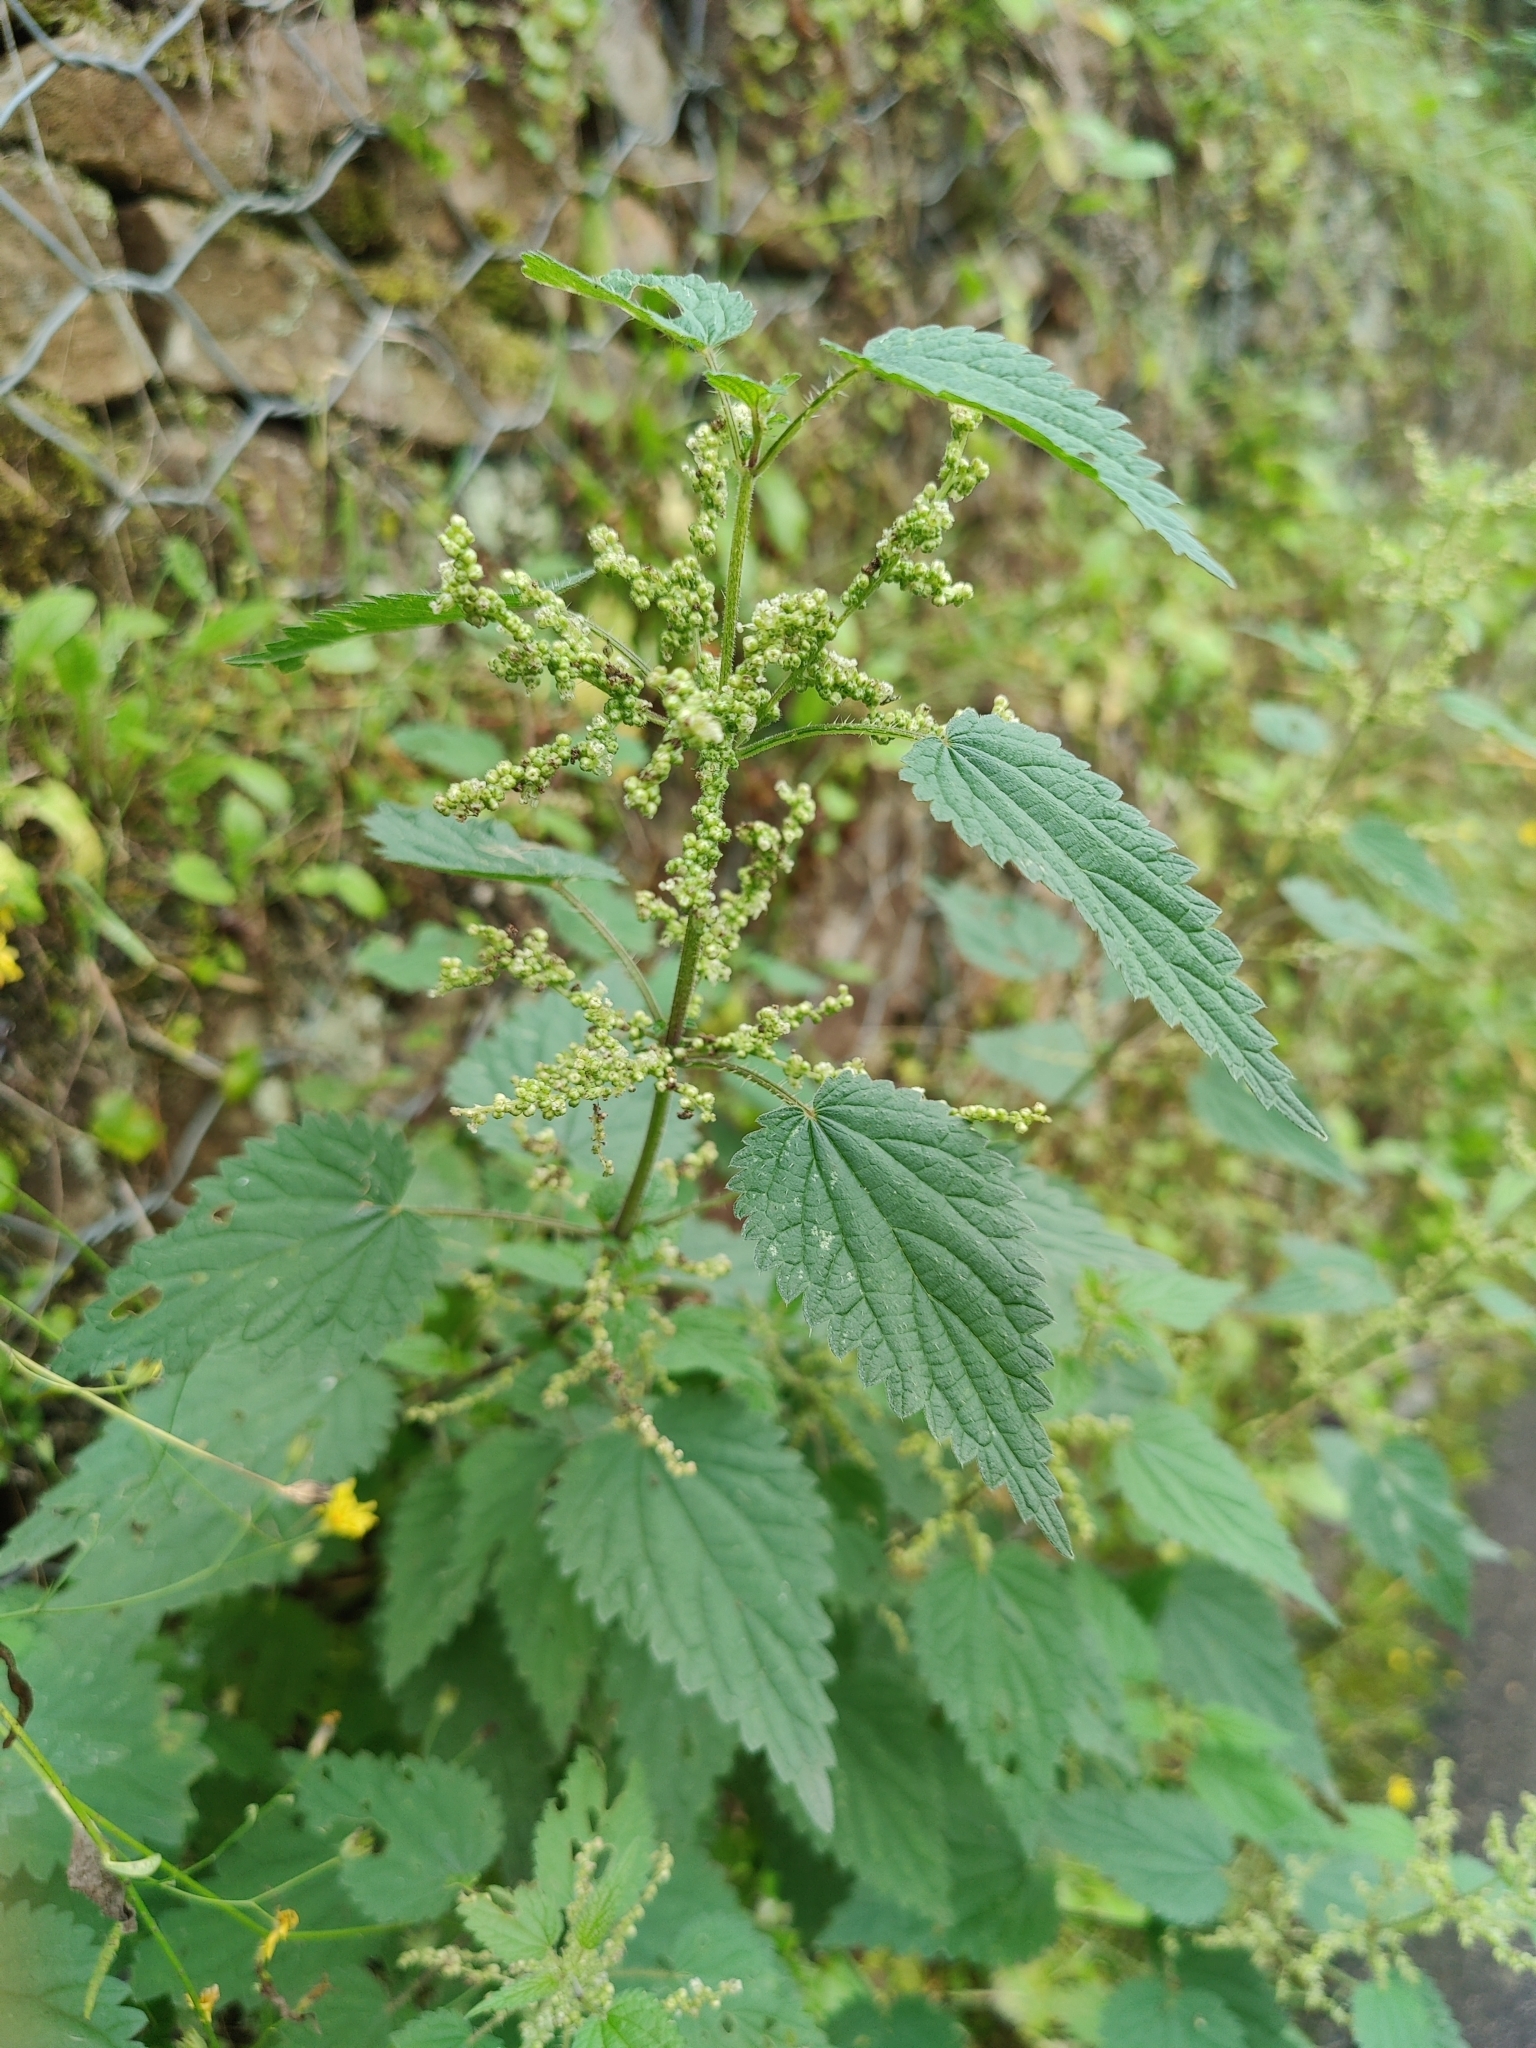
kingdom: Plantae
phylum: Tracheophyta
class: Magnoliopsida
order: Rosales
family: Urticaceae
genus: Urtica
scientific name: Urtica dioica
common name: Common nettle
